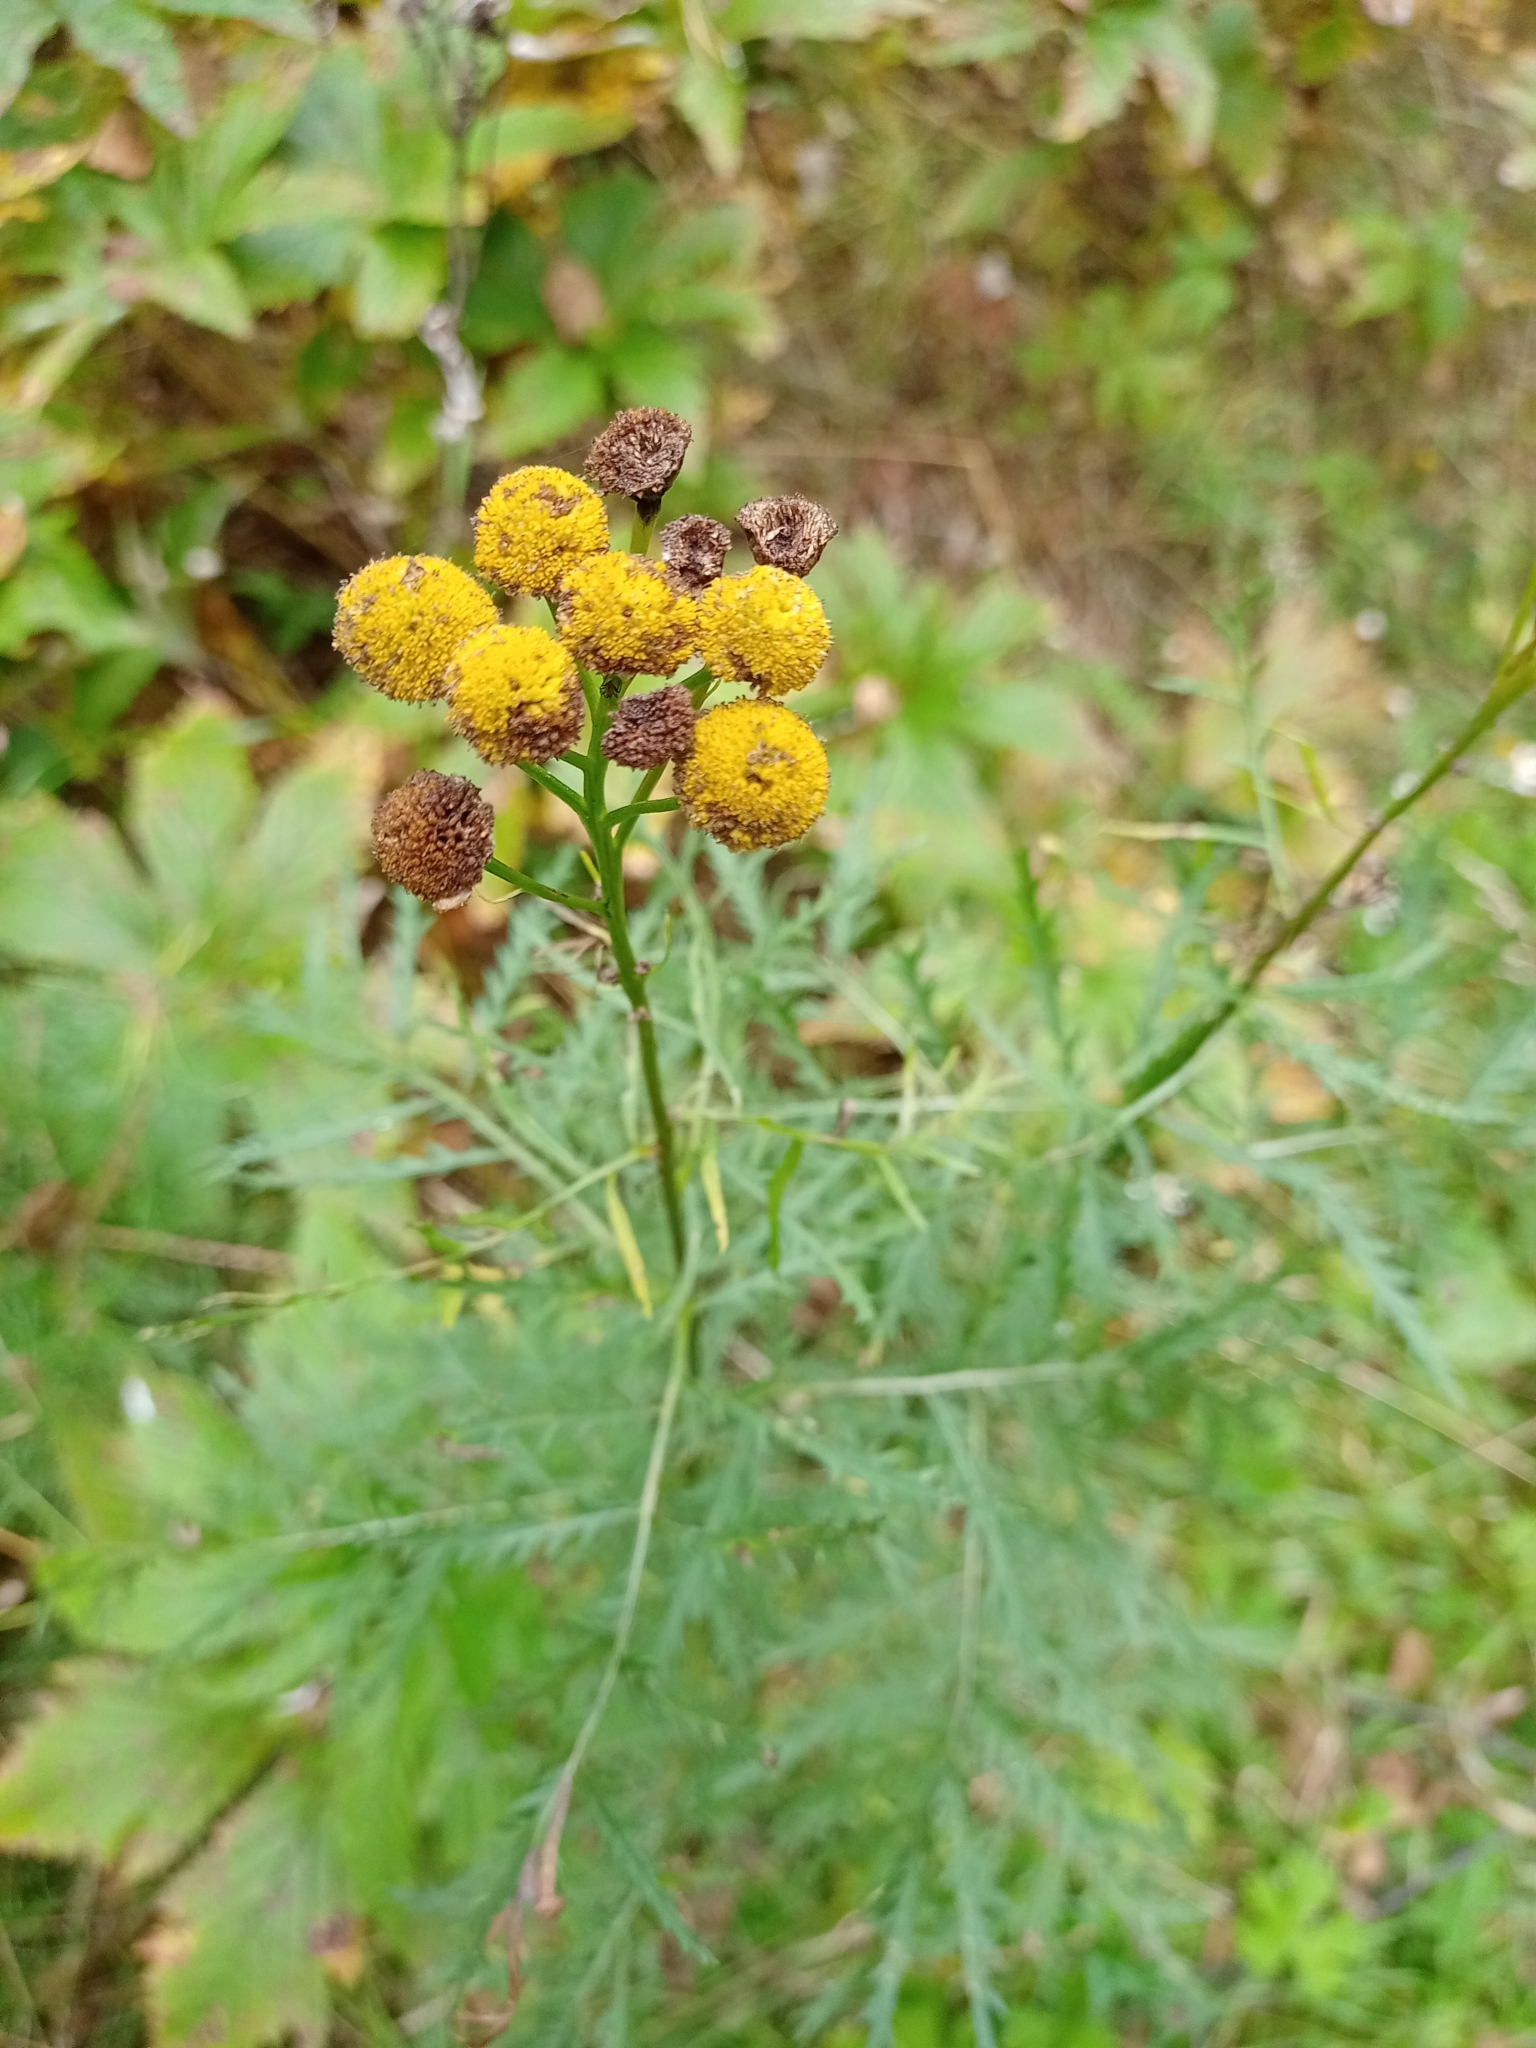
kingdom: Plantae
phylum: Tracheophyta
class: Magnoliopsida
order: Asterales
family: Asteraceae
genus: Tanacetum
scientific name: Tanacetum vulgare
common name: Common tansy
